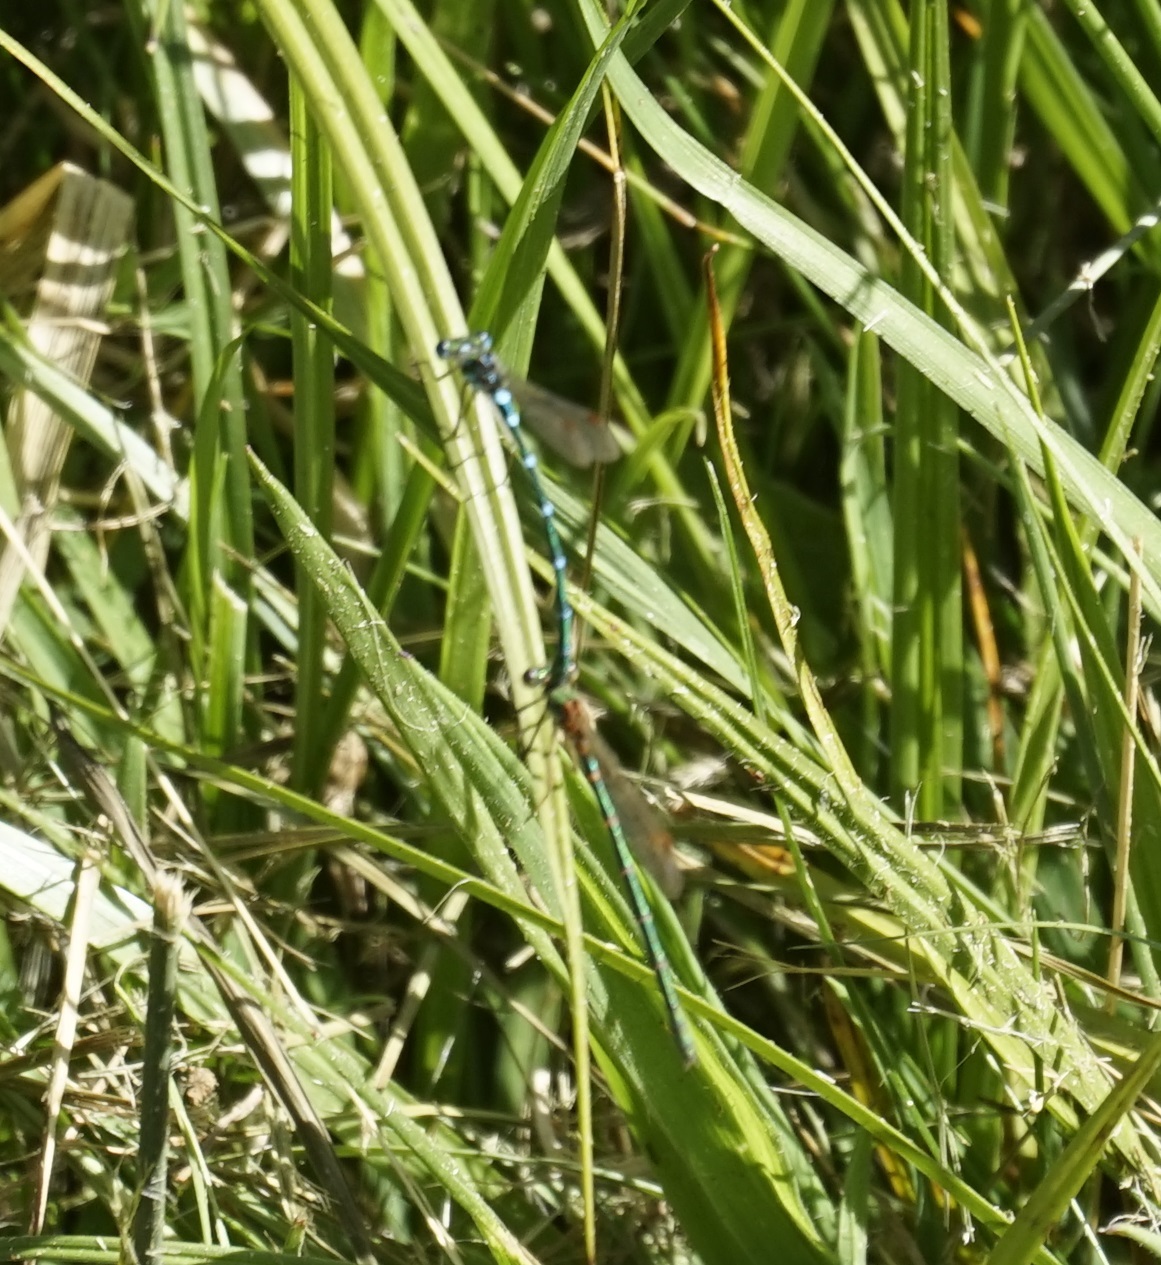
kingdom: Animalia
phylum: Arthropoda
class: Insecta
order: Odonata
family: Lestidae
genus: Austrolestes
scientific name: Austrolestes cingulatus
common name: Metallic ringtail
